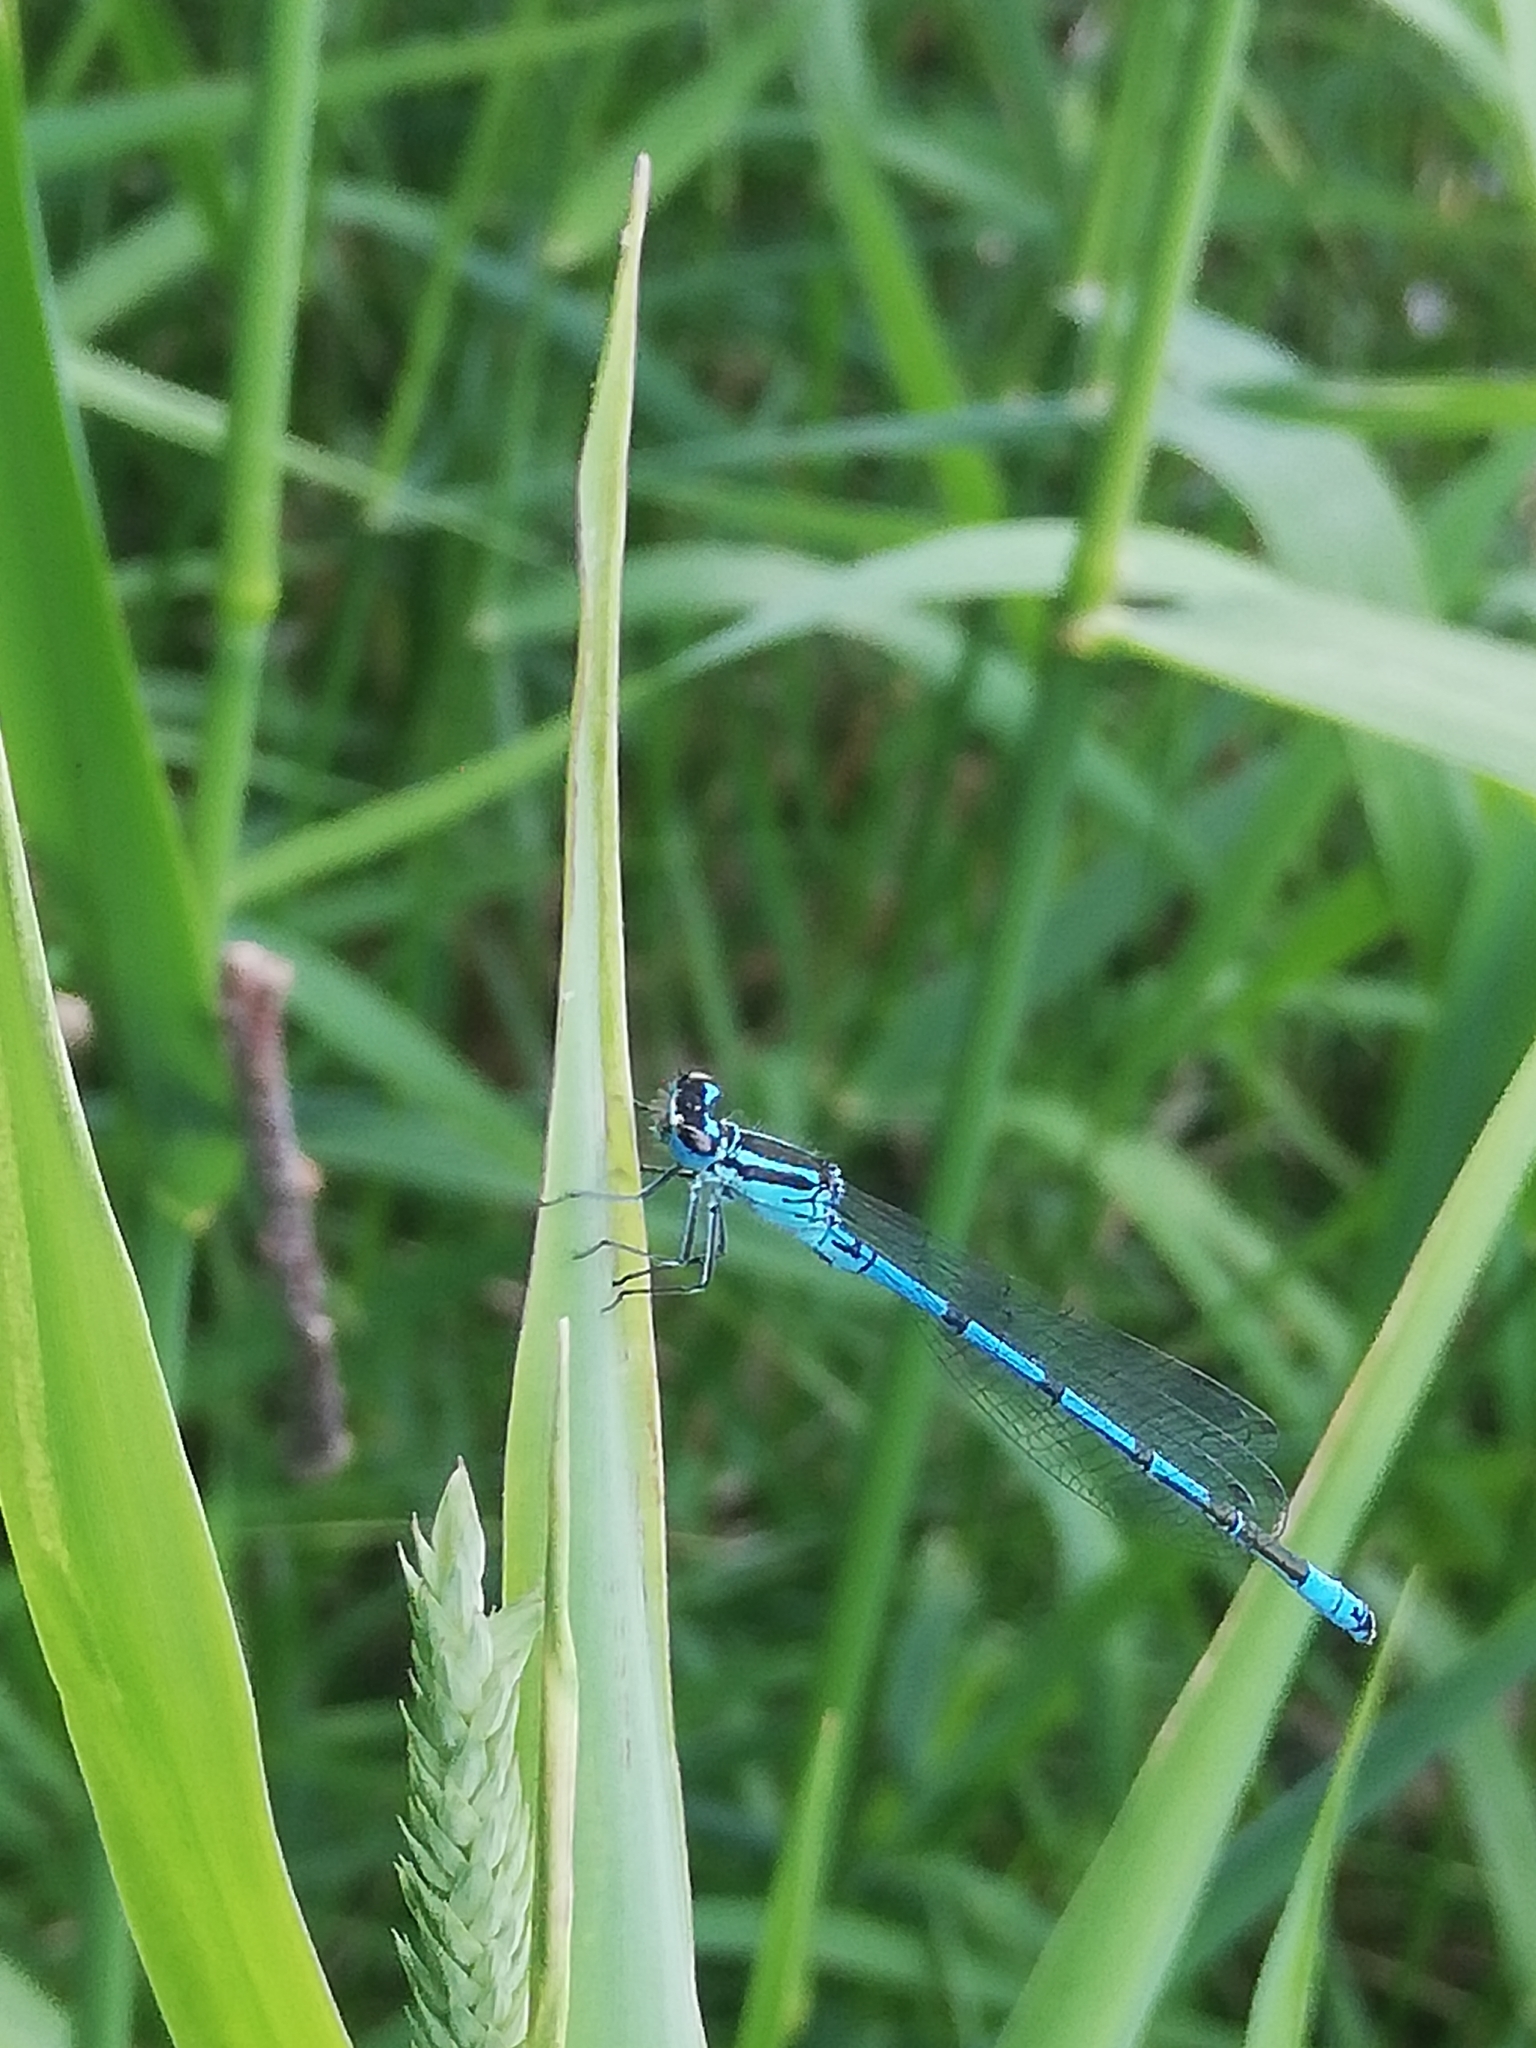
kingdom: Animalia
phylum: Arthropoda
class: Insecta
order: Odonata
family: Coenagrionidae
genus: Coenagrion
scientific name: Coenagrion puella
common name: Azure damselfly
